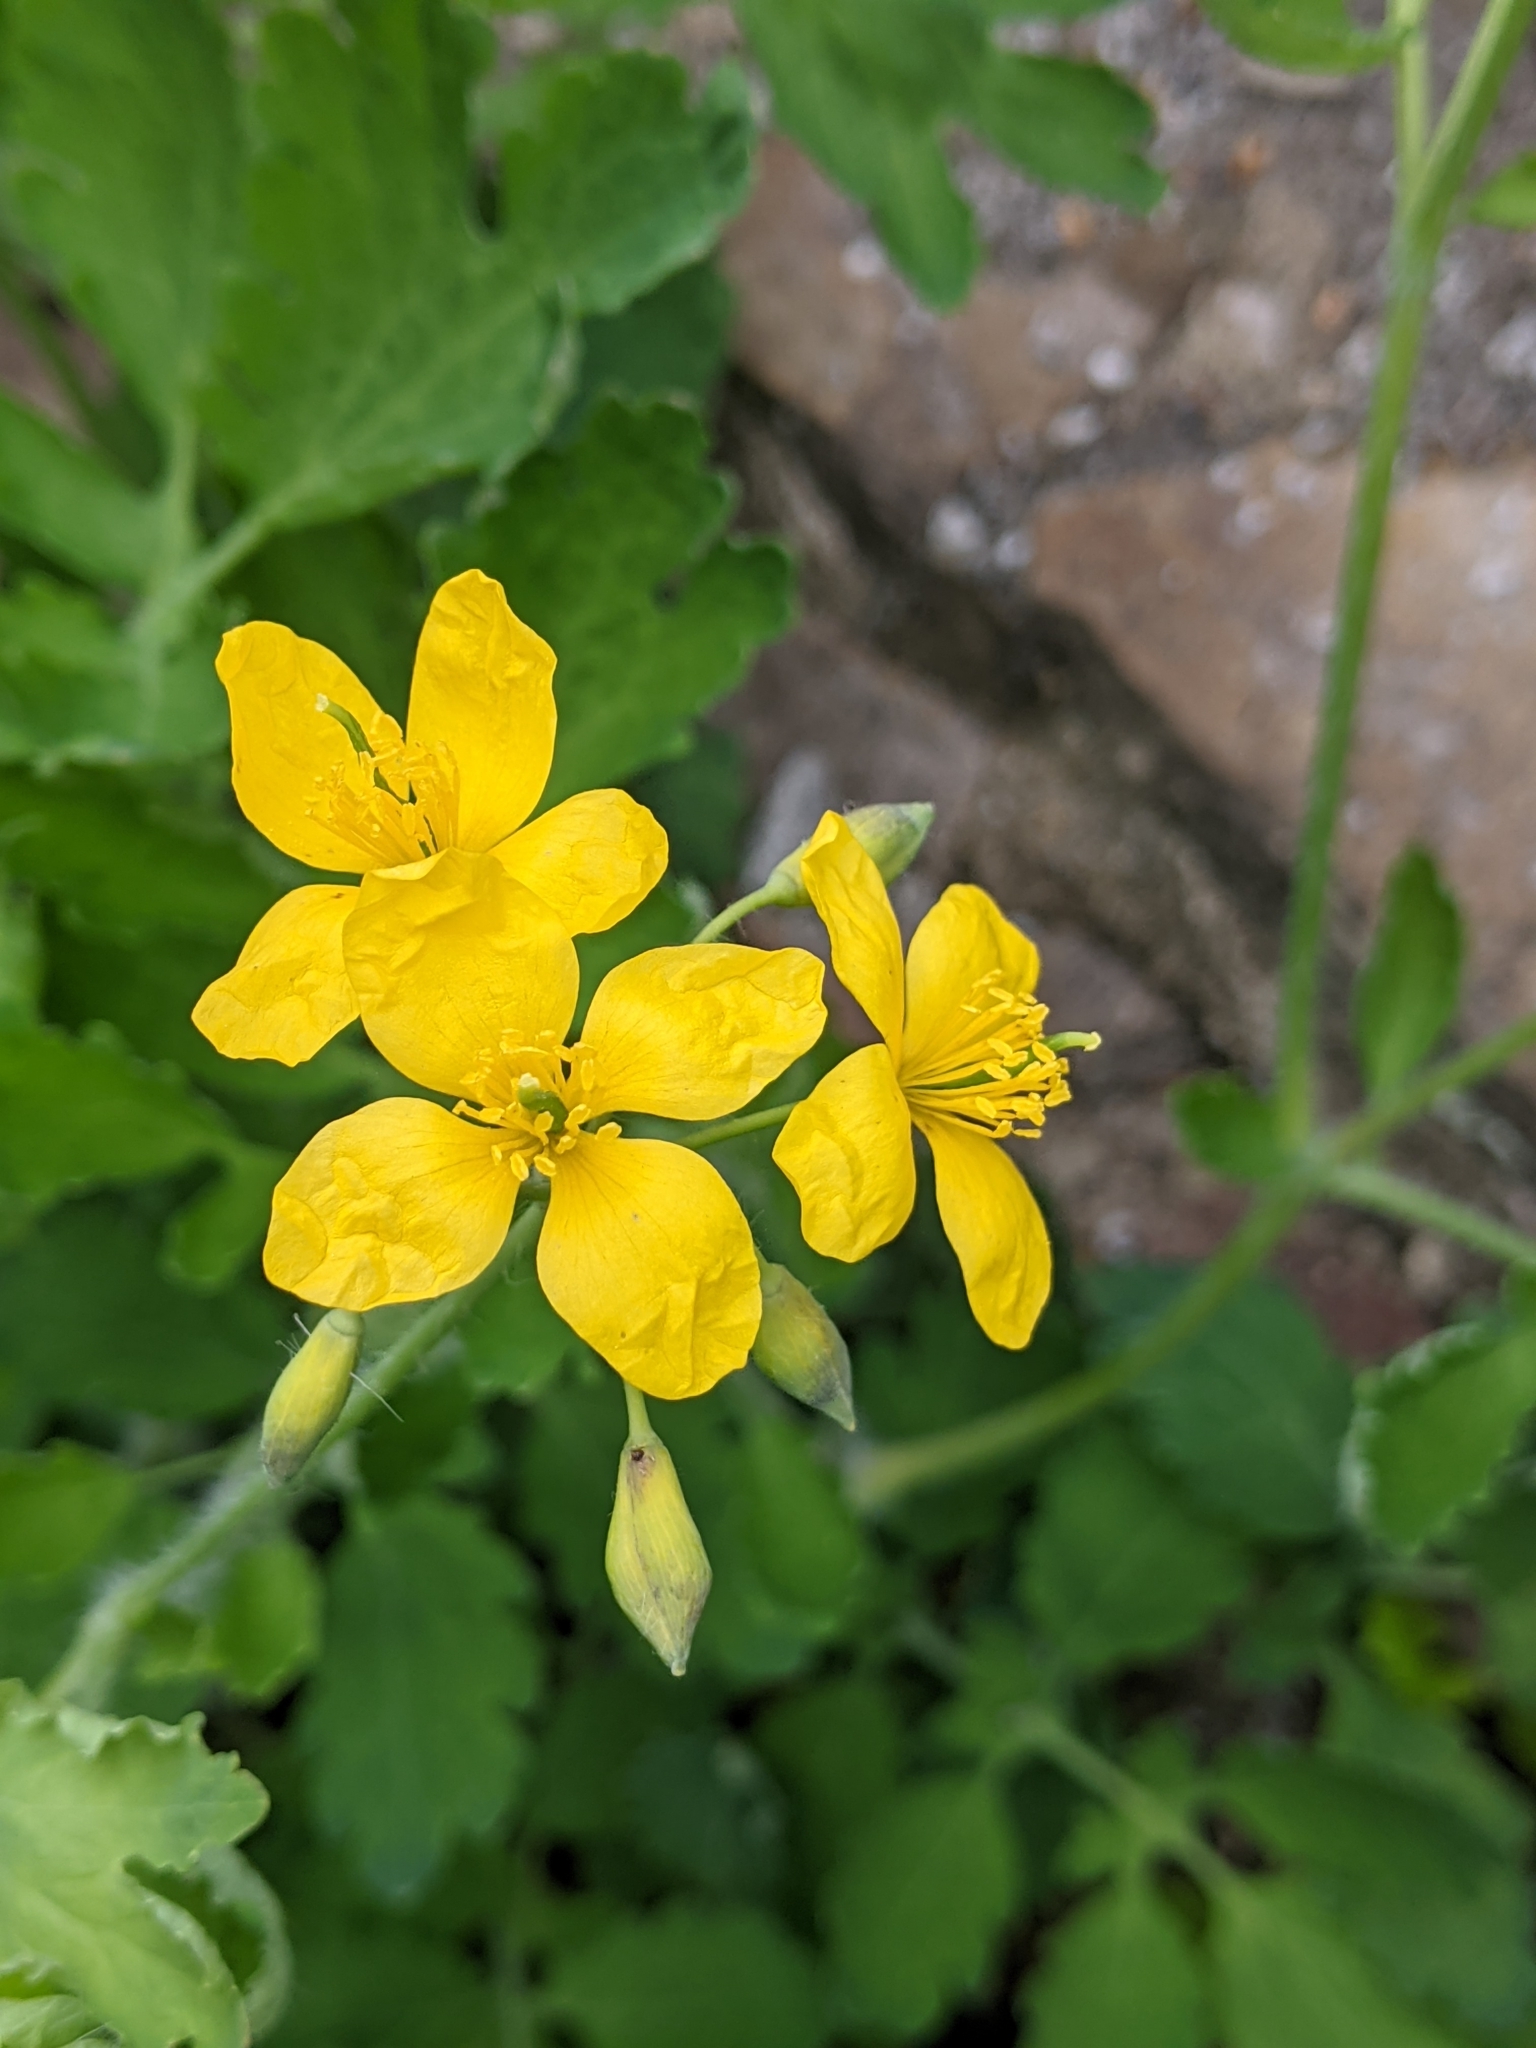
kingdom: Plantae
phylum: Tracheophyta
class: Magnoliopsida
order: Ranunculales
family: Papaveraceae
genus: Chelidonium
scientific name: Chelidonium majus
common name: Greater celandine
